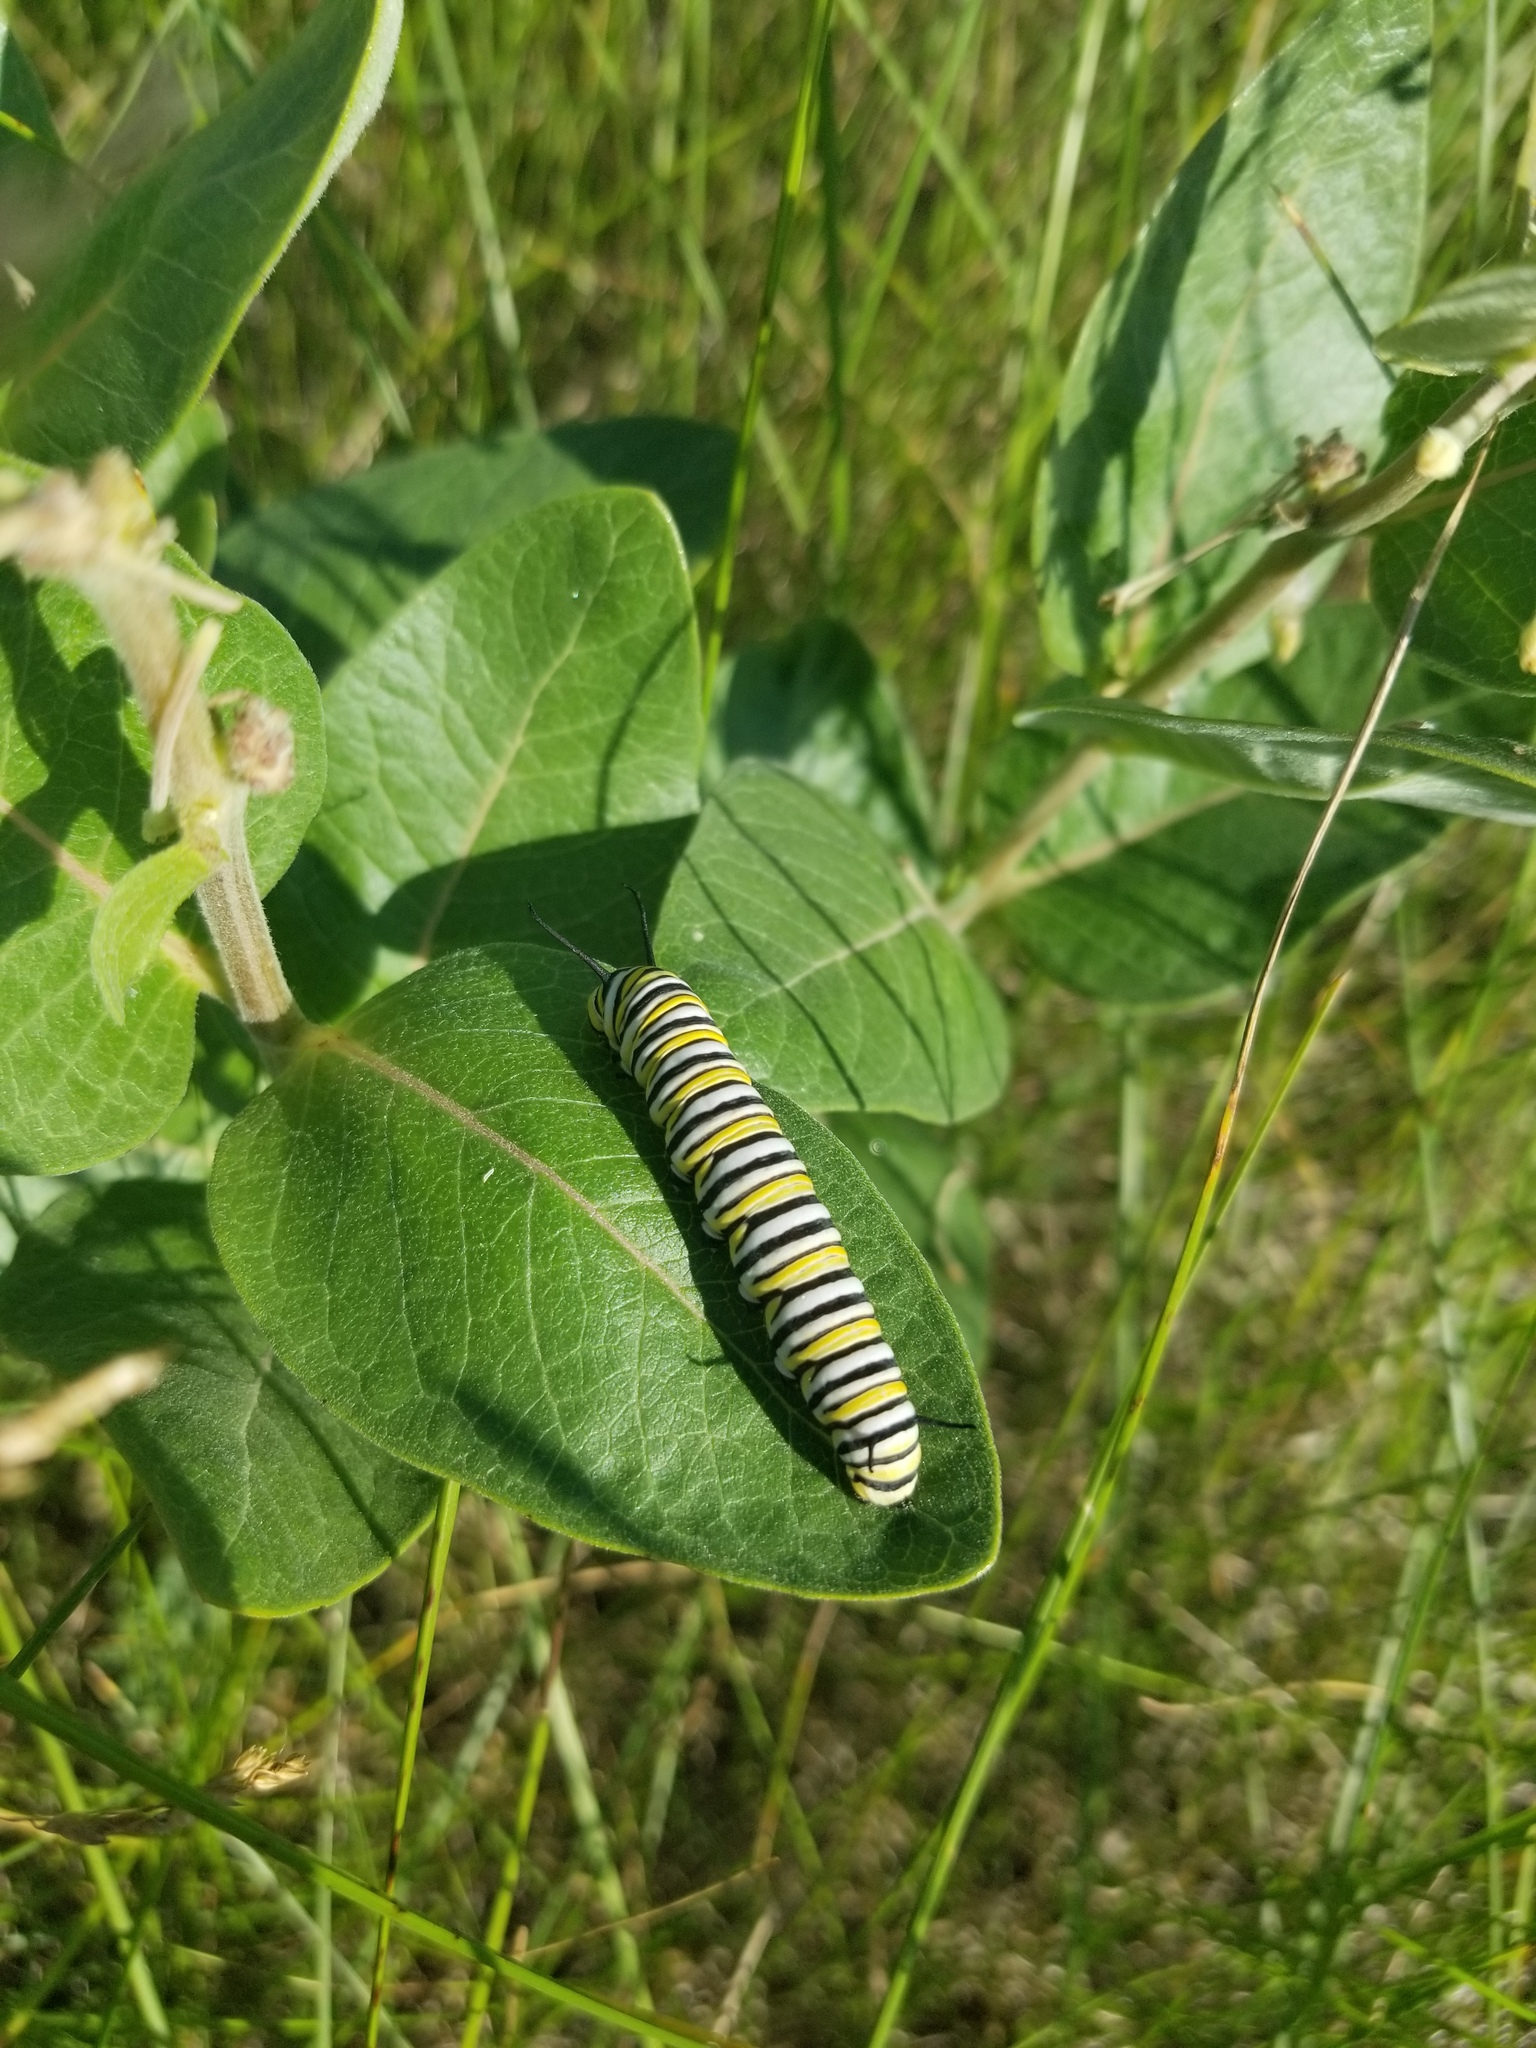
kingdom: Animalia
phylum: Arthropoda
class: Insecta
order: Lepidoptera
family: Nymphalidae
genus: Danaus
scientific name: Danaus plexippus
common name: Monarch
